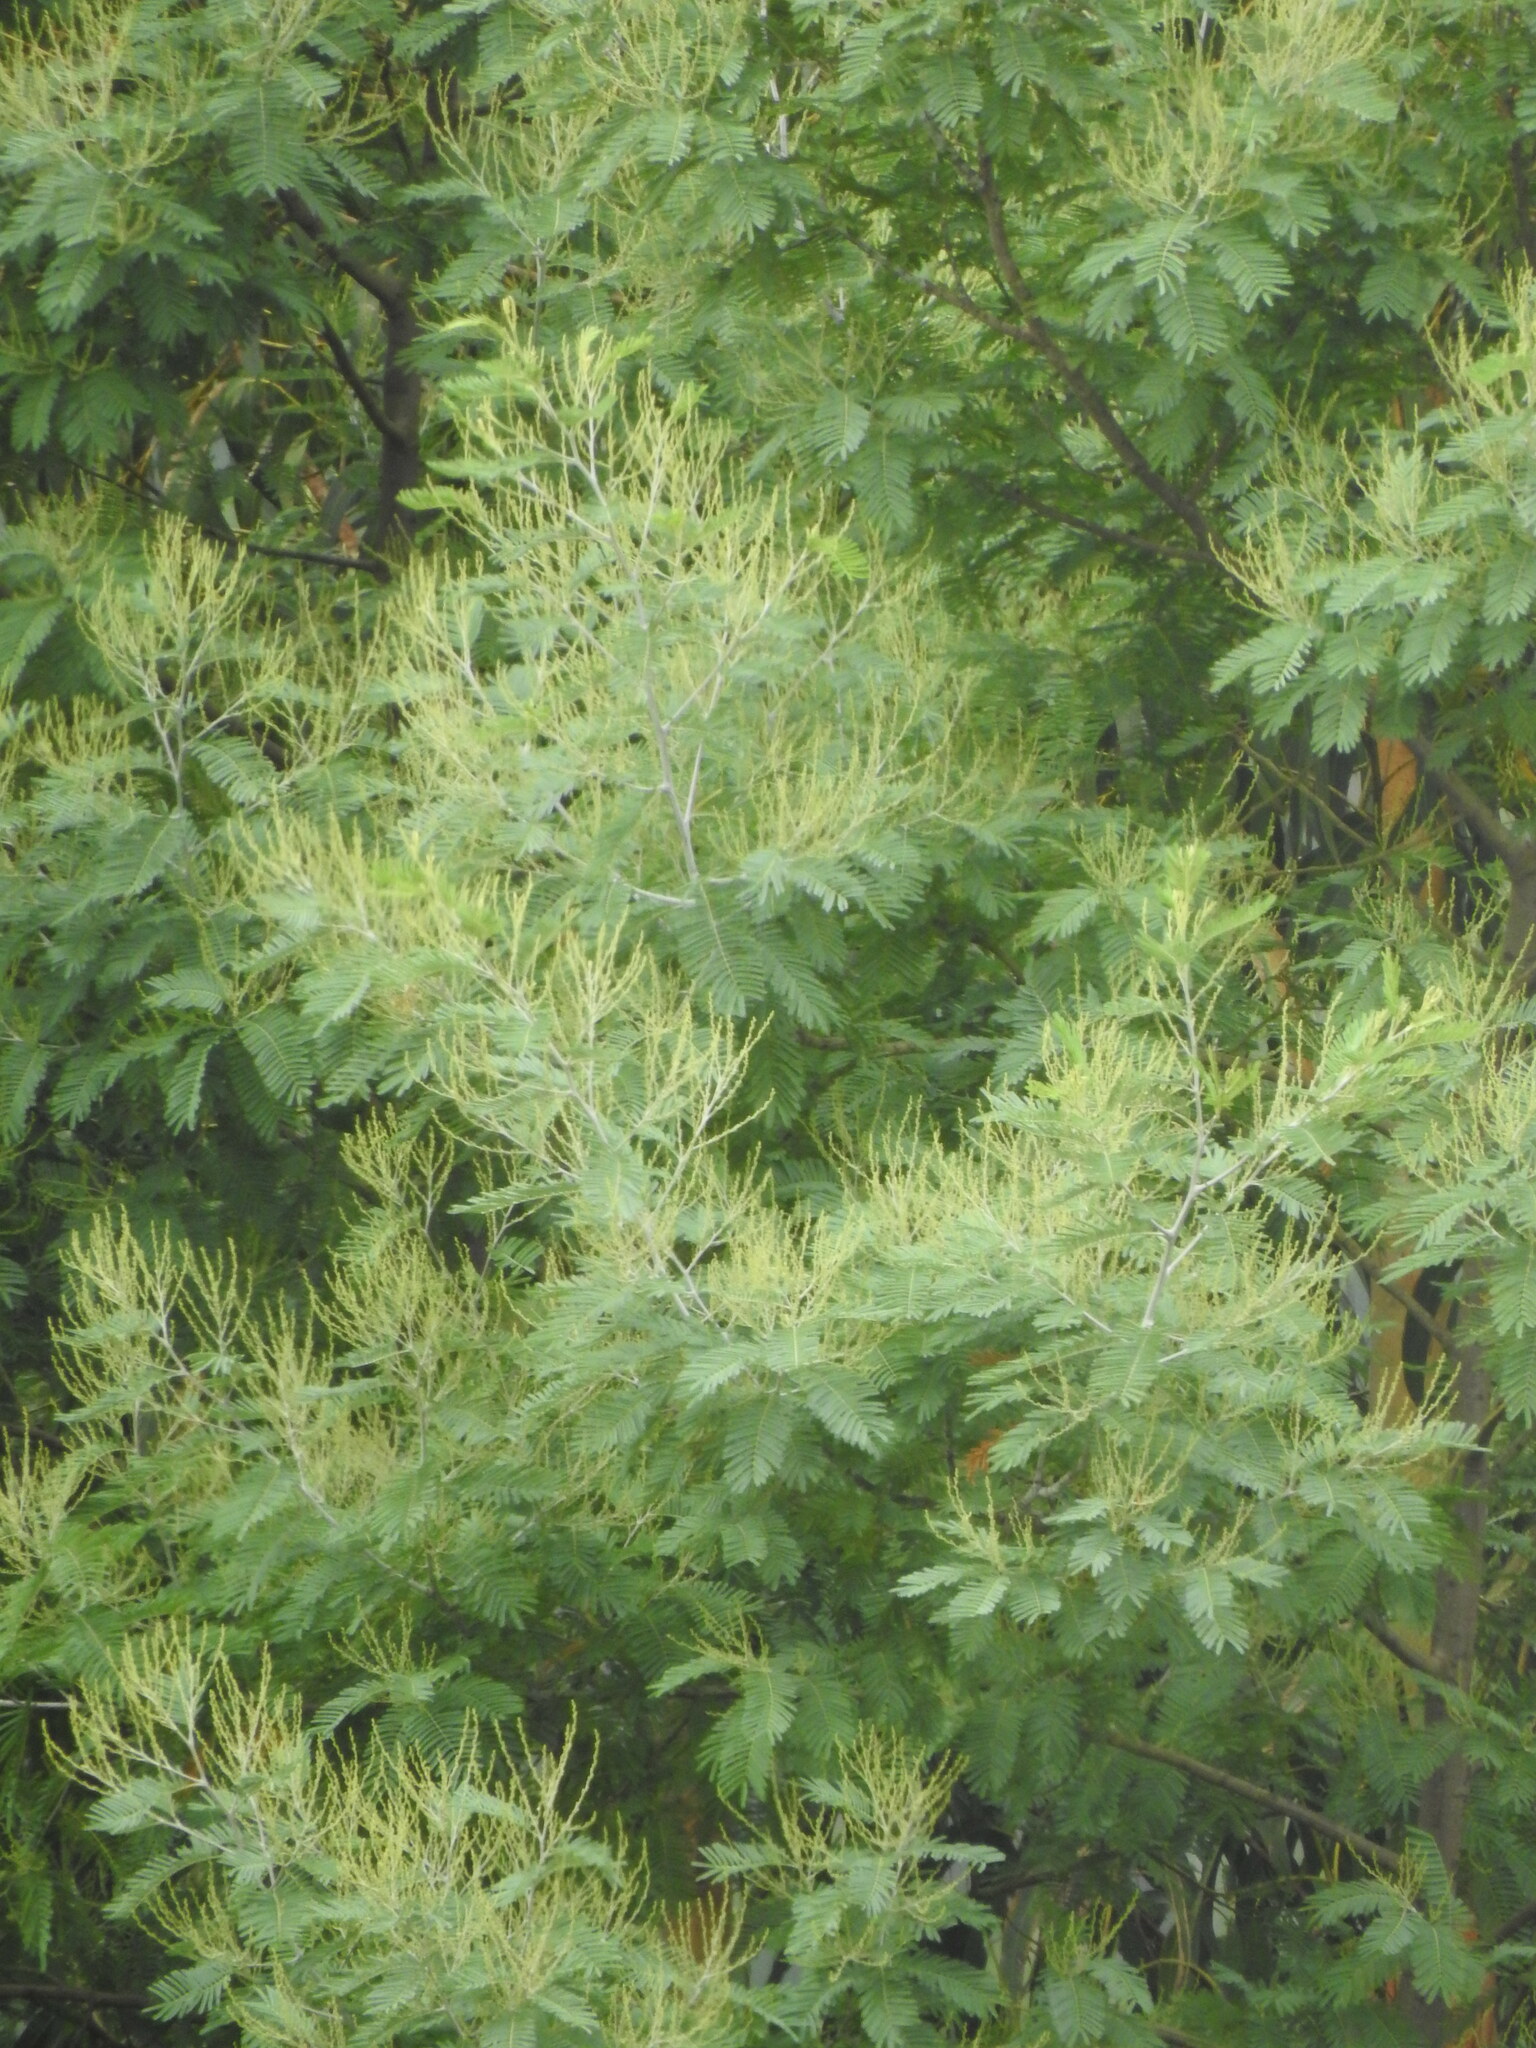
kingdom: Plantae
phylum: Tracheophyta
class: Magnoliopsida
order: Fabales
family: Fabaceae
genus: Acacia
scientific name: Acacia dealbata
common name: Silver wattle
